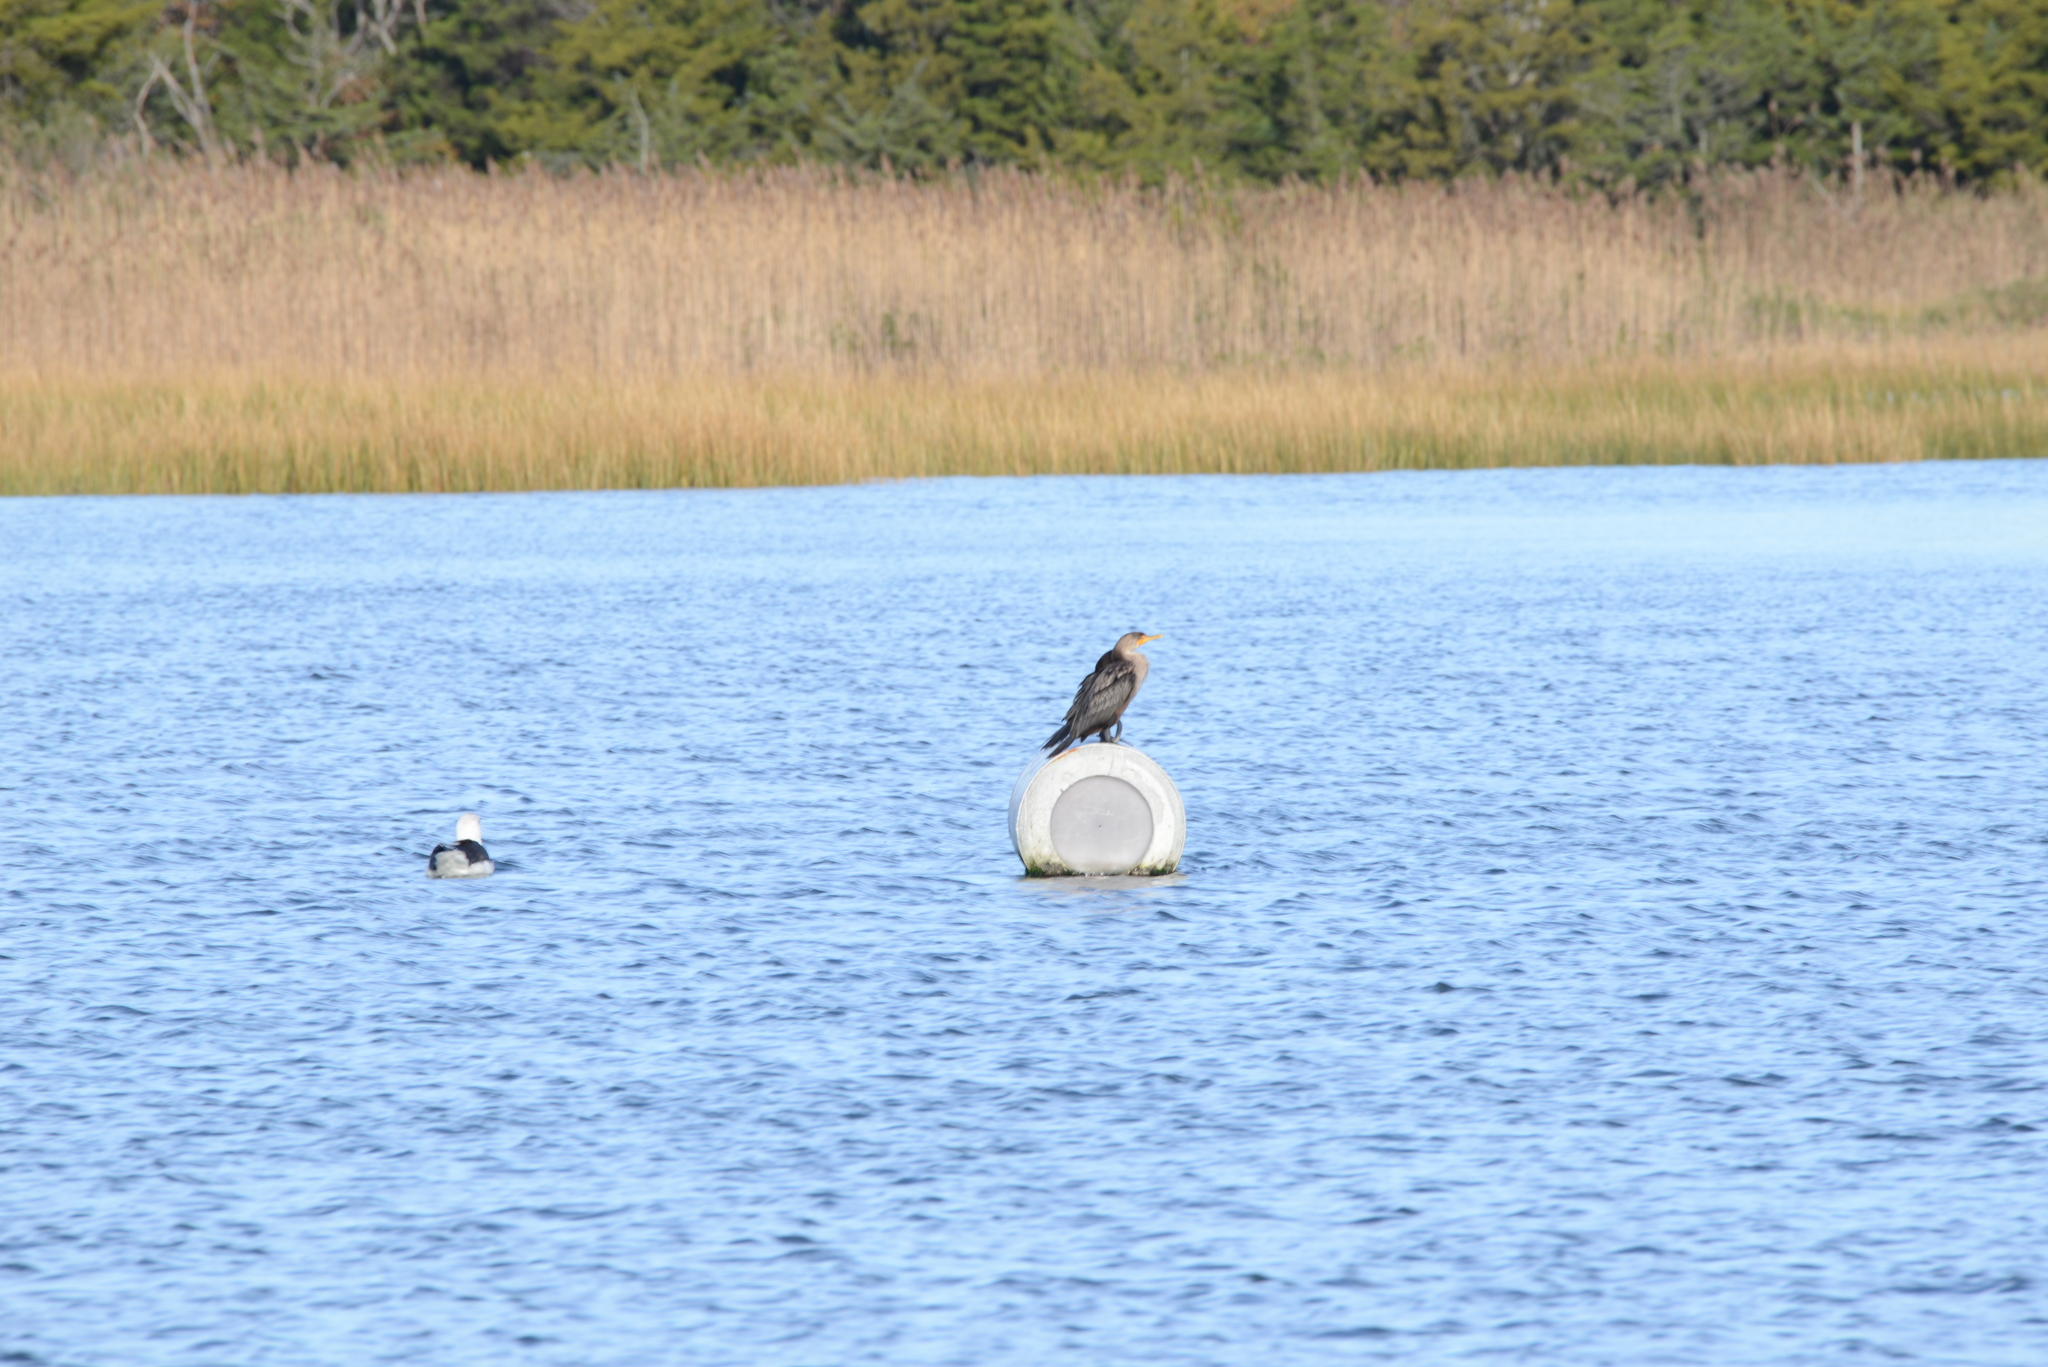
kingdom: Animalia
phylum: Chordata
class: Aves
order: Suliformes
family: Phalacrocoracidae
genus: Phalacrocorax
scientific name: Phalacrocorax auritus
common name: Double-crested cormorant
